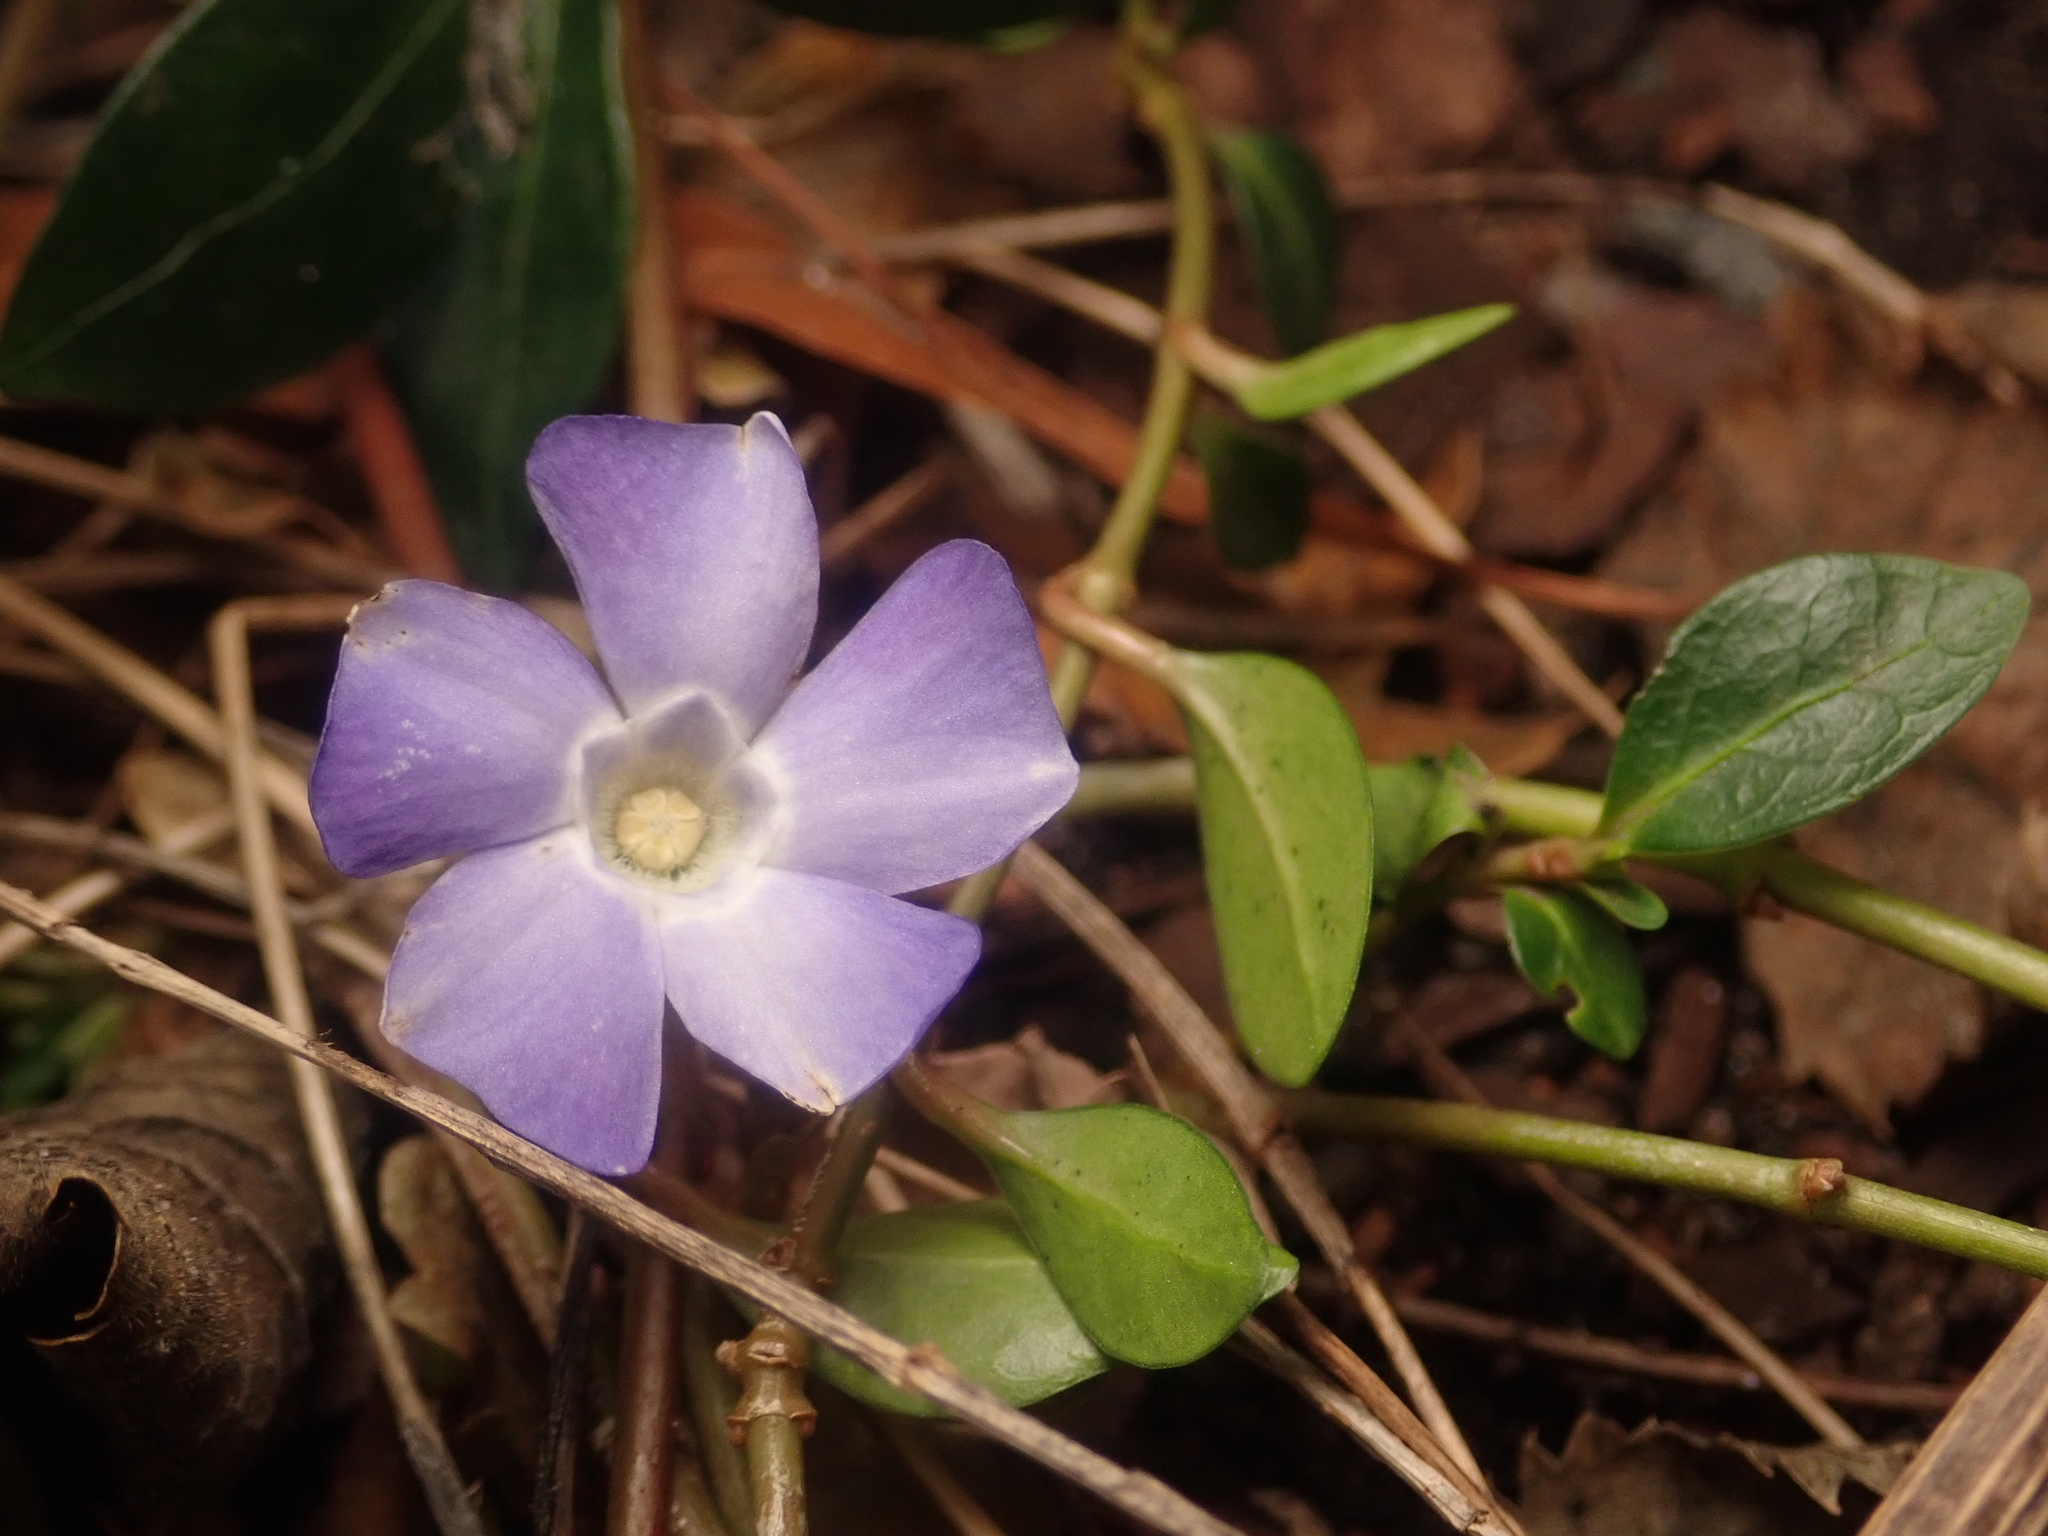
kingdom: Plantae
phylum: Tracheophyta
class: Magnoliopsida
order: Gentianales
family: Apocynaceae
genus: Vinca
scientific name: Vinca minor
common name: Lesser periwinkle
